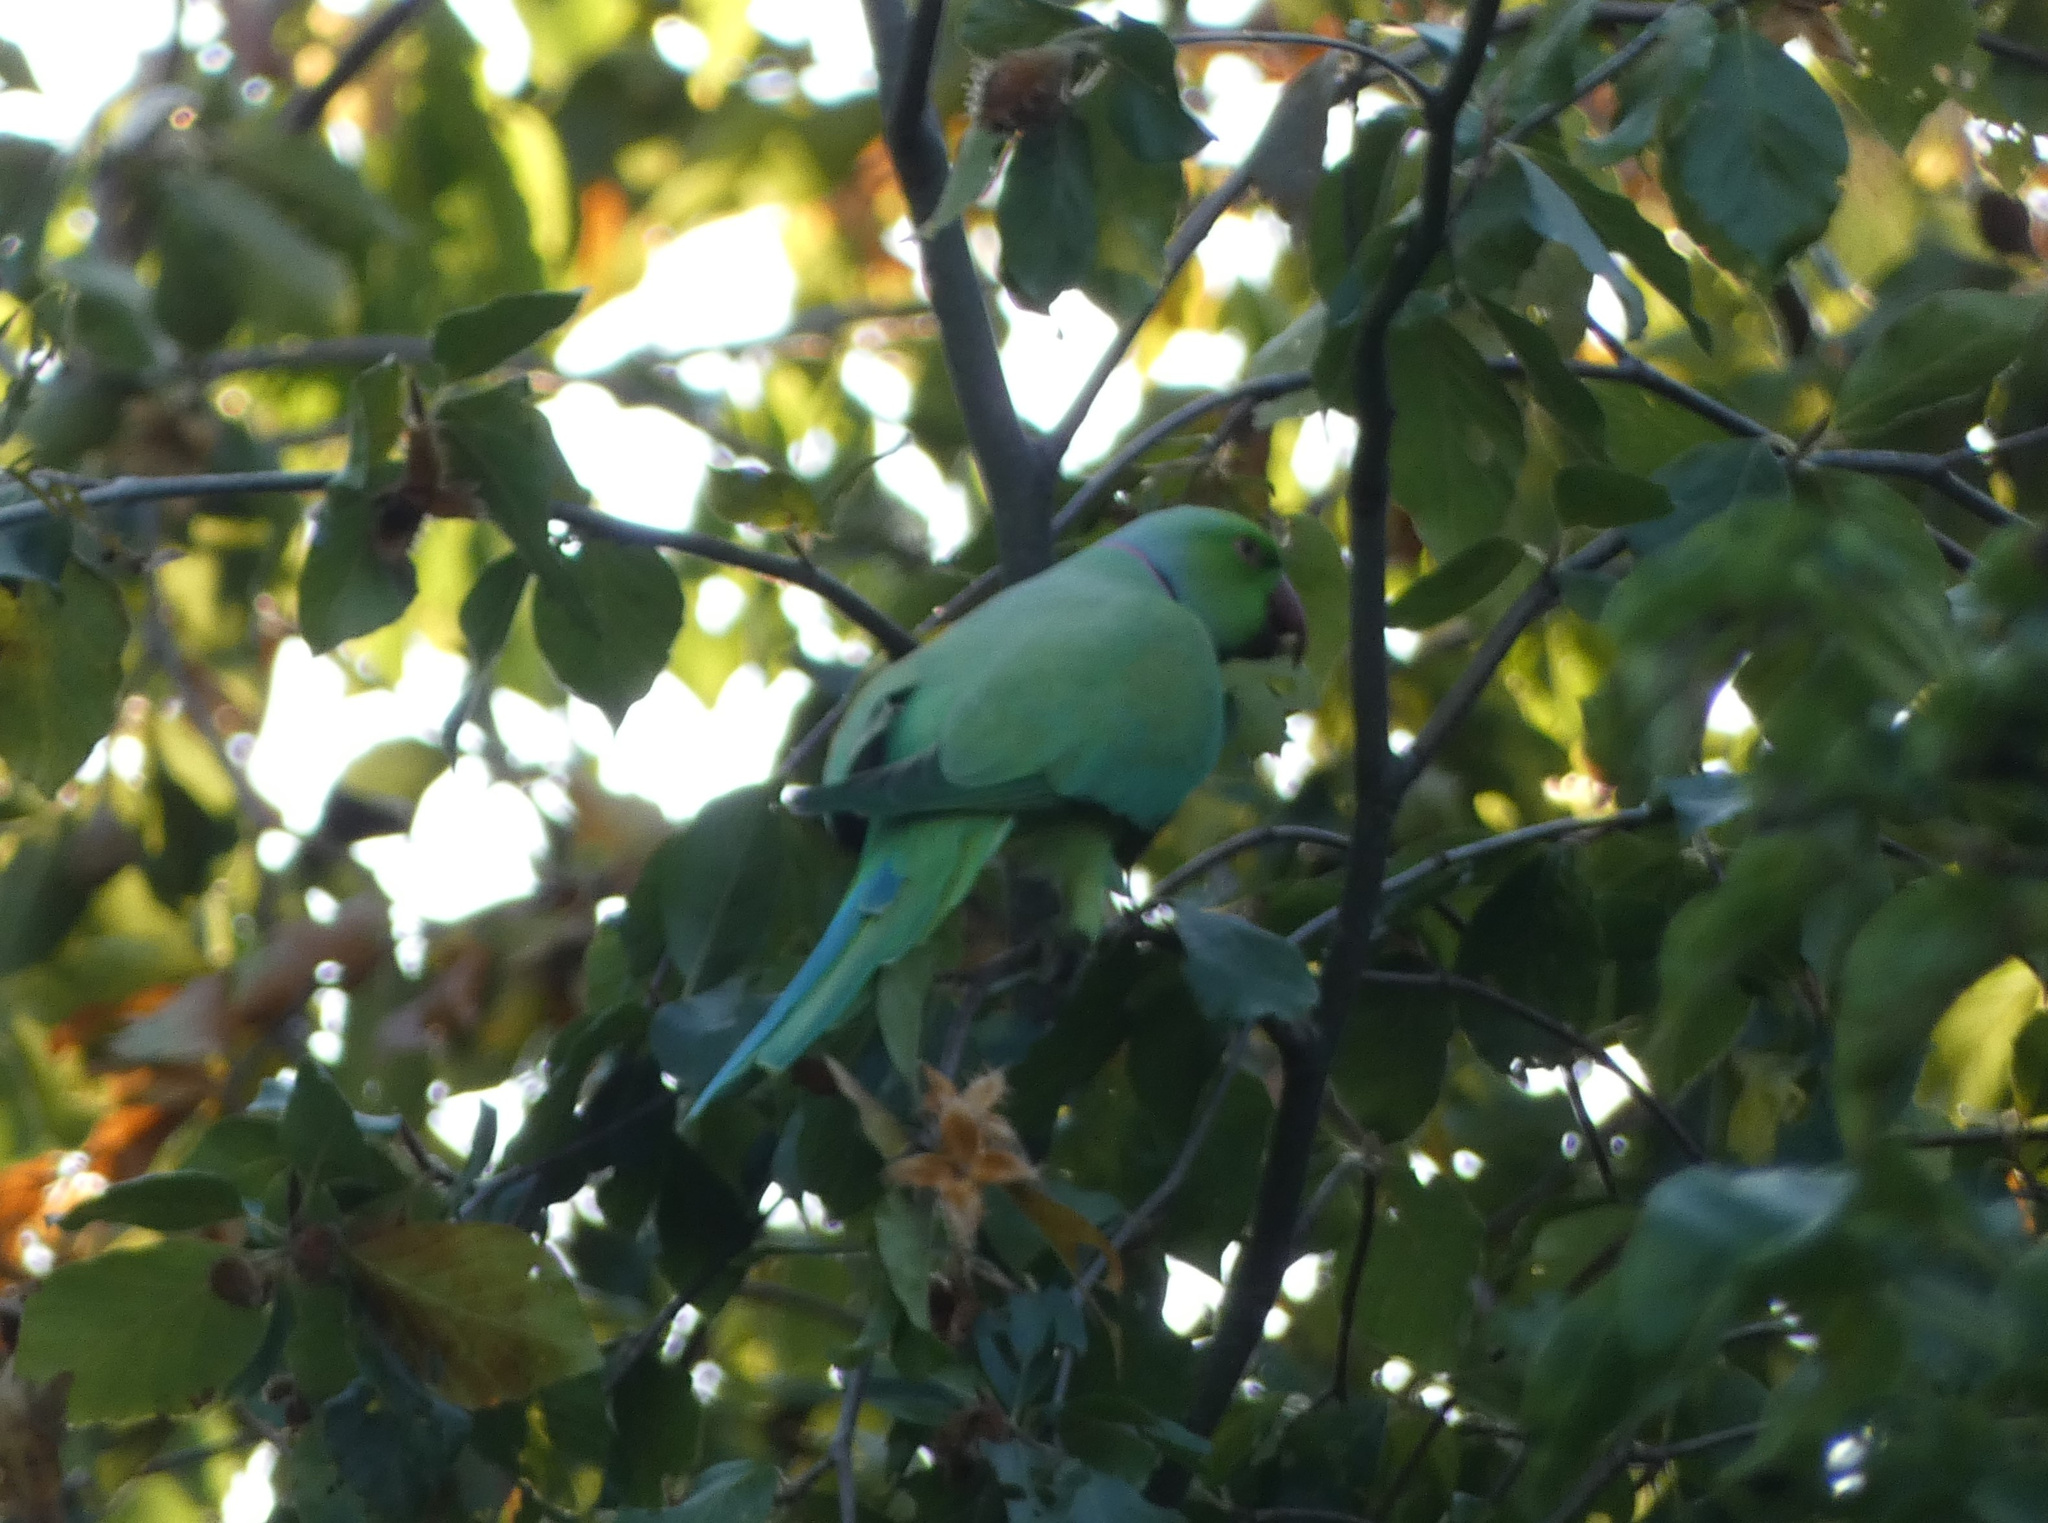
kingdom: Animalia
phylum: Chordata
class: Aves
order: Psittaciformes
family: Psittacidae
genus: Psittacula
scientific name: Psittacula krameri
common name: Rose-ringed parakeet
